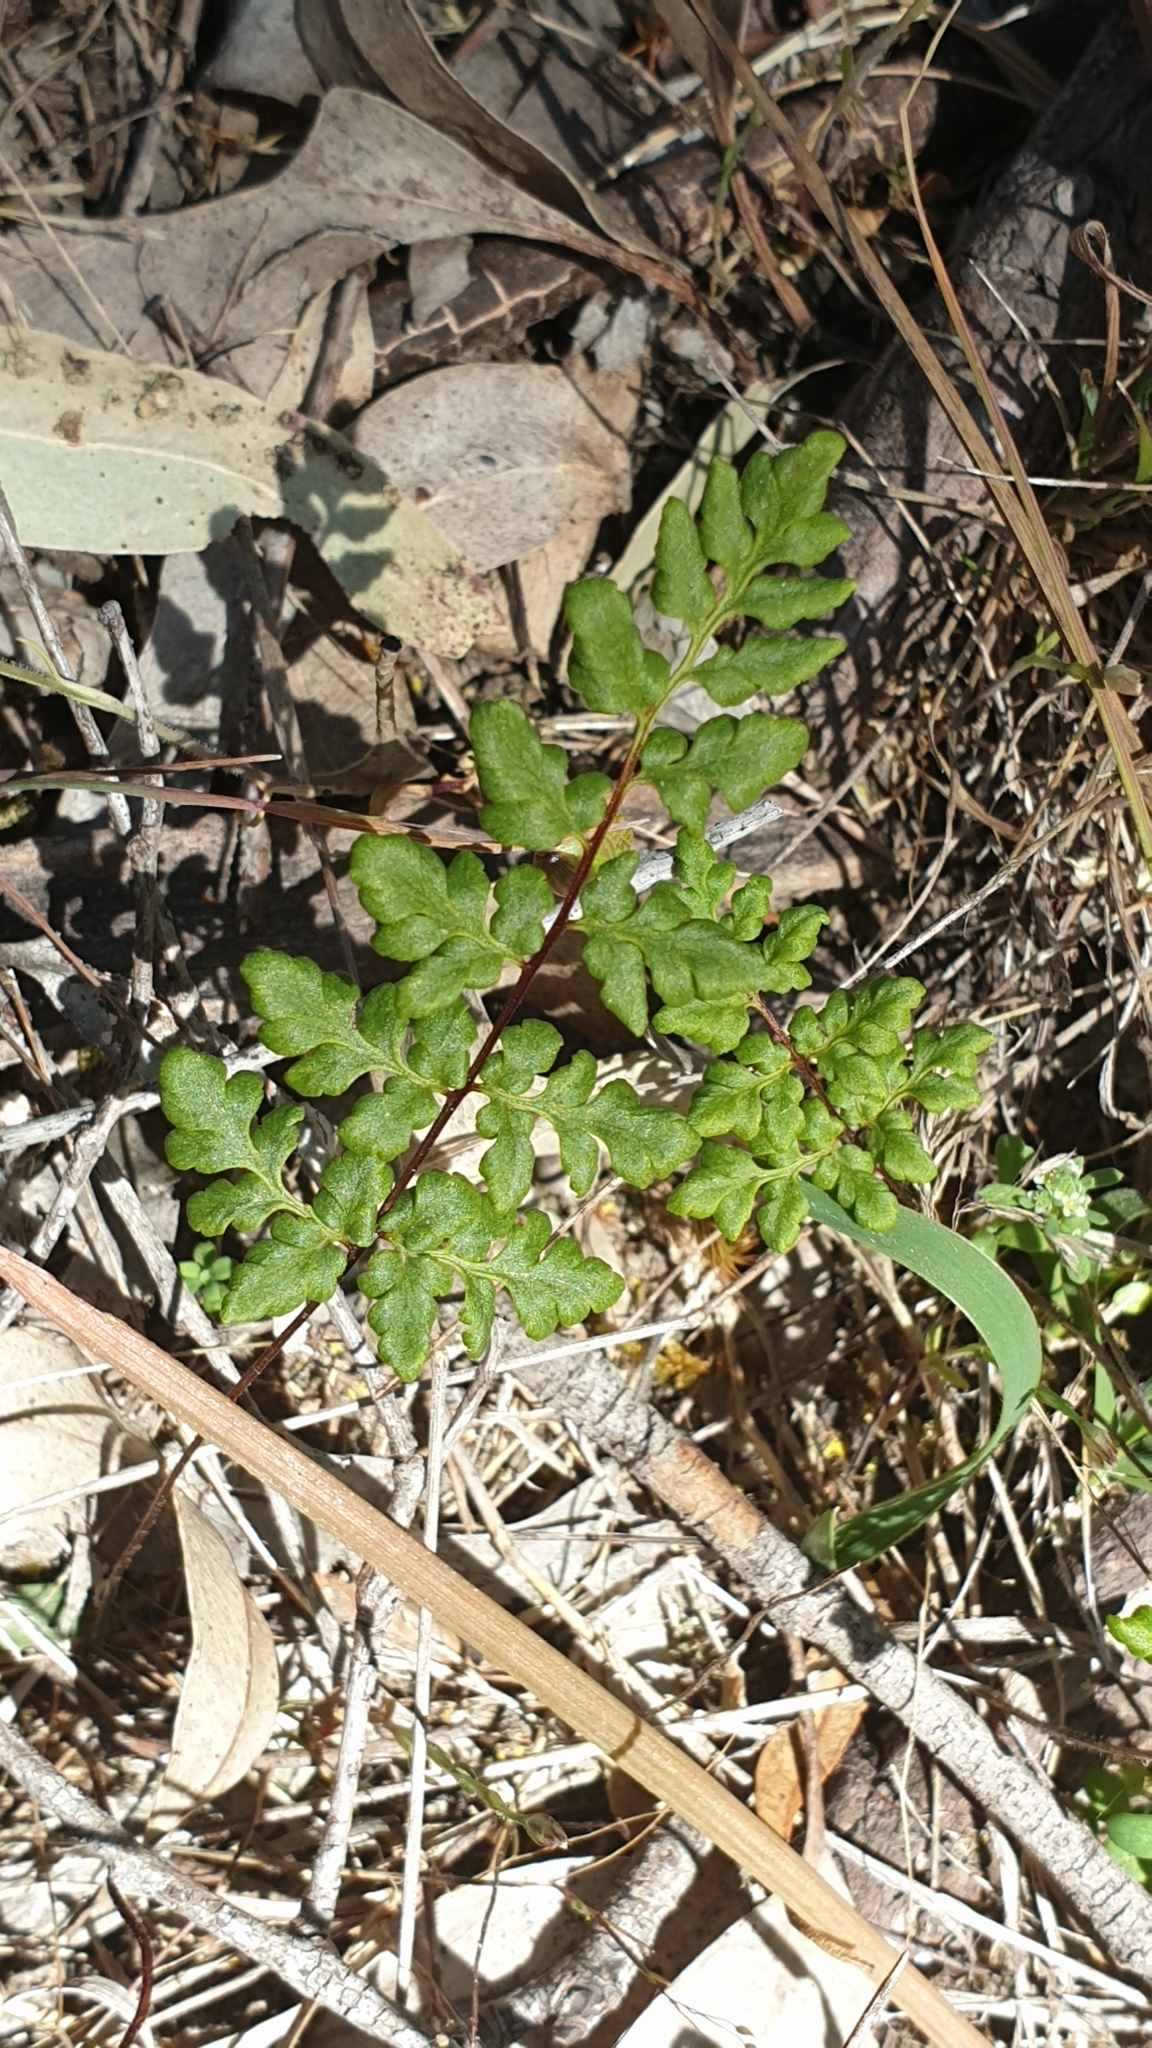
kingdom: Plantae
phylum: Tracheophyta
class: Polypodiopsida
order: Polypodiales
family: Pteridaceae
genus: Cheilanthes
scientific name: Cheilanthes austrotenuifolia
